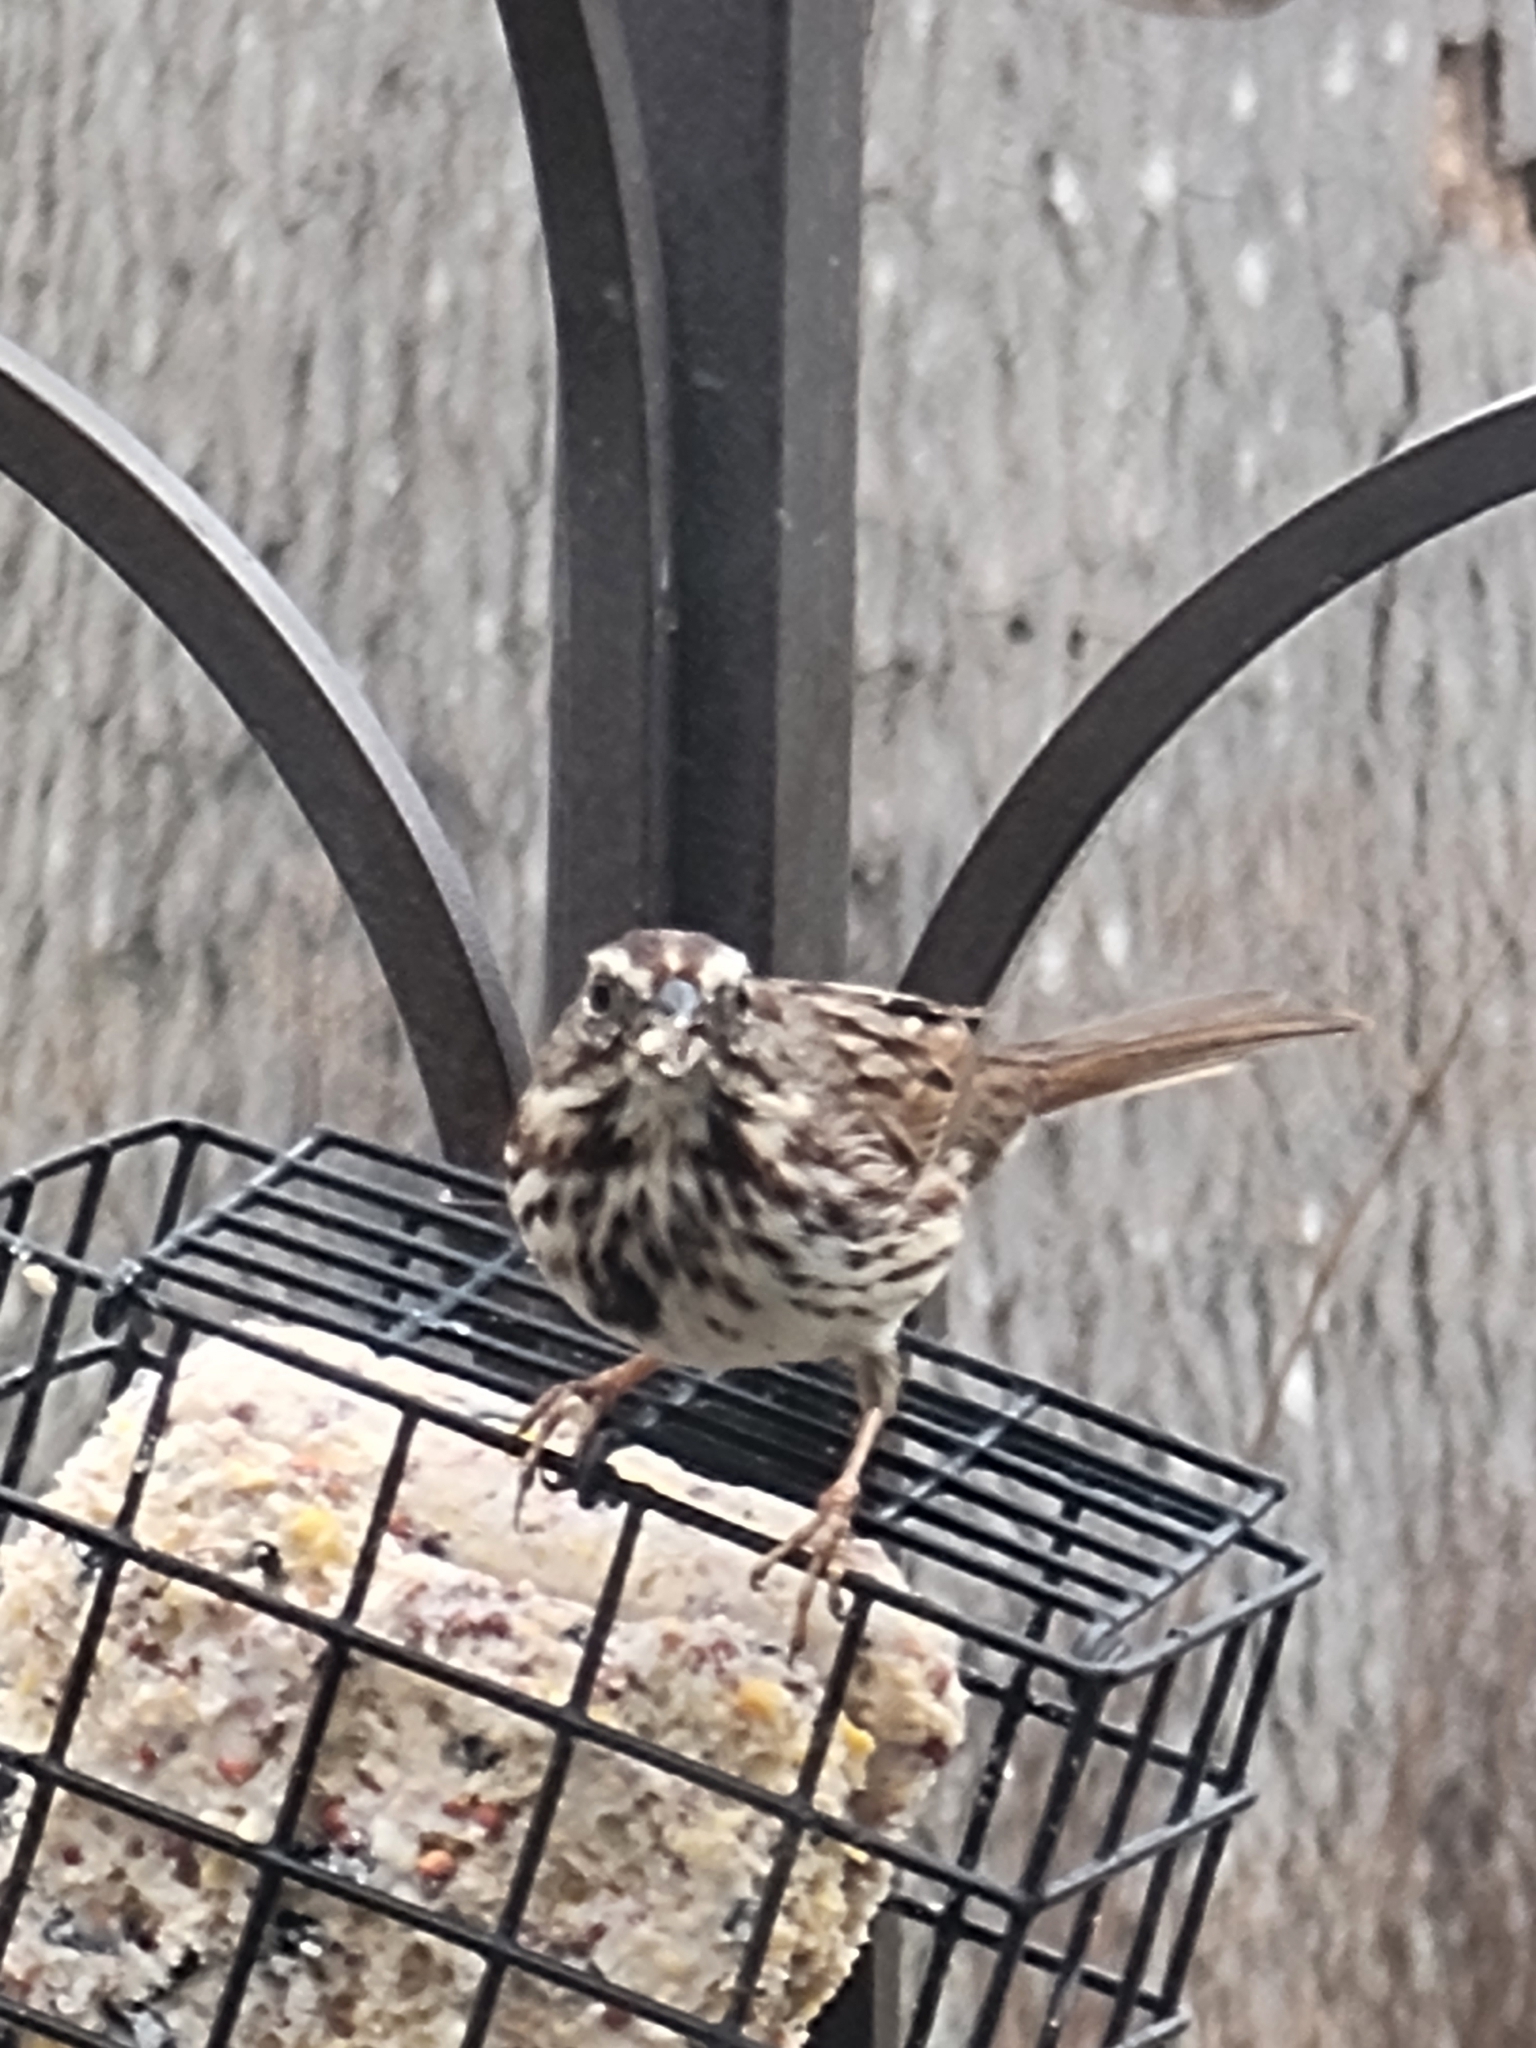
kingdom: Animalia
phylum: Chordata
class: Aves
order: Passeriformes
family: Passerellidae
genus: Melospiza
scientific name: Melospiza melodia
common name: Song sparrow
